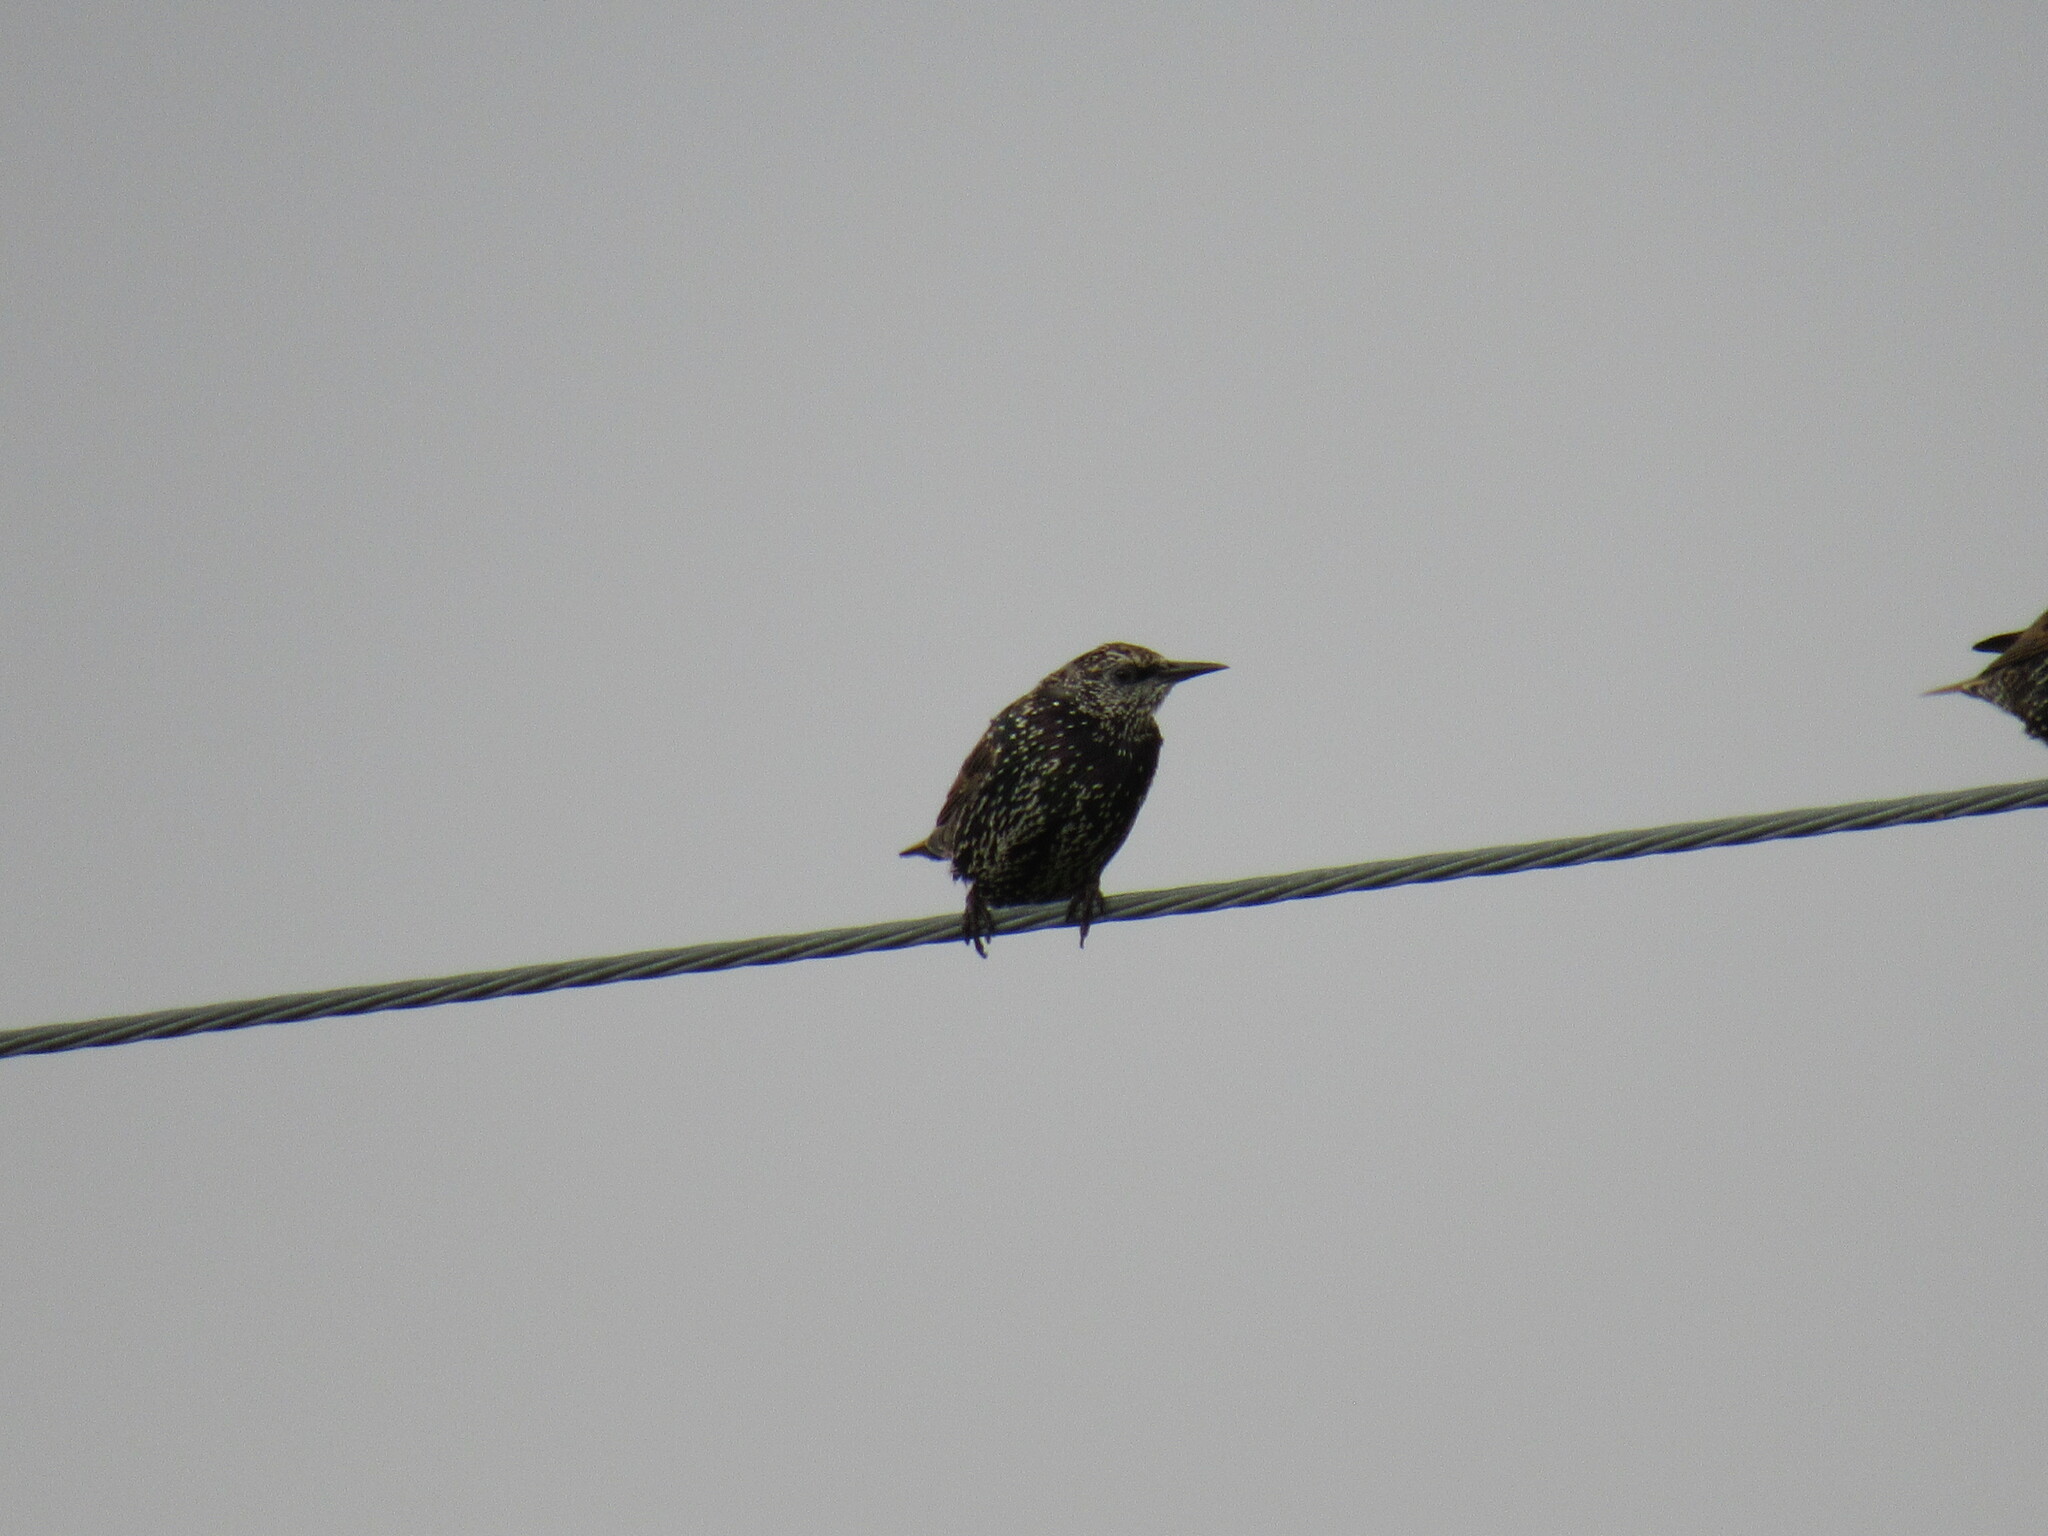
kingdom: Animalia
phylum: Chordata
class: Aves
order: Passeriformes
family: Sturnidae
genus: Sturnus
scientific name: Sturnus vulgaris
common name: Common starling
